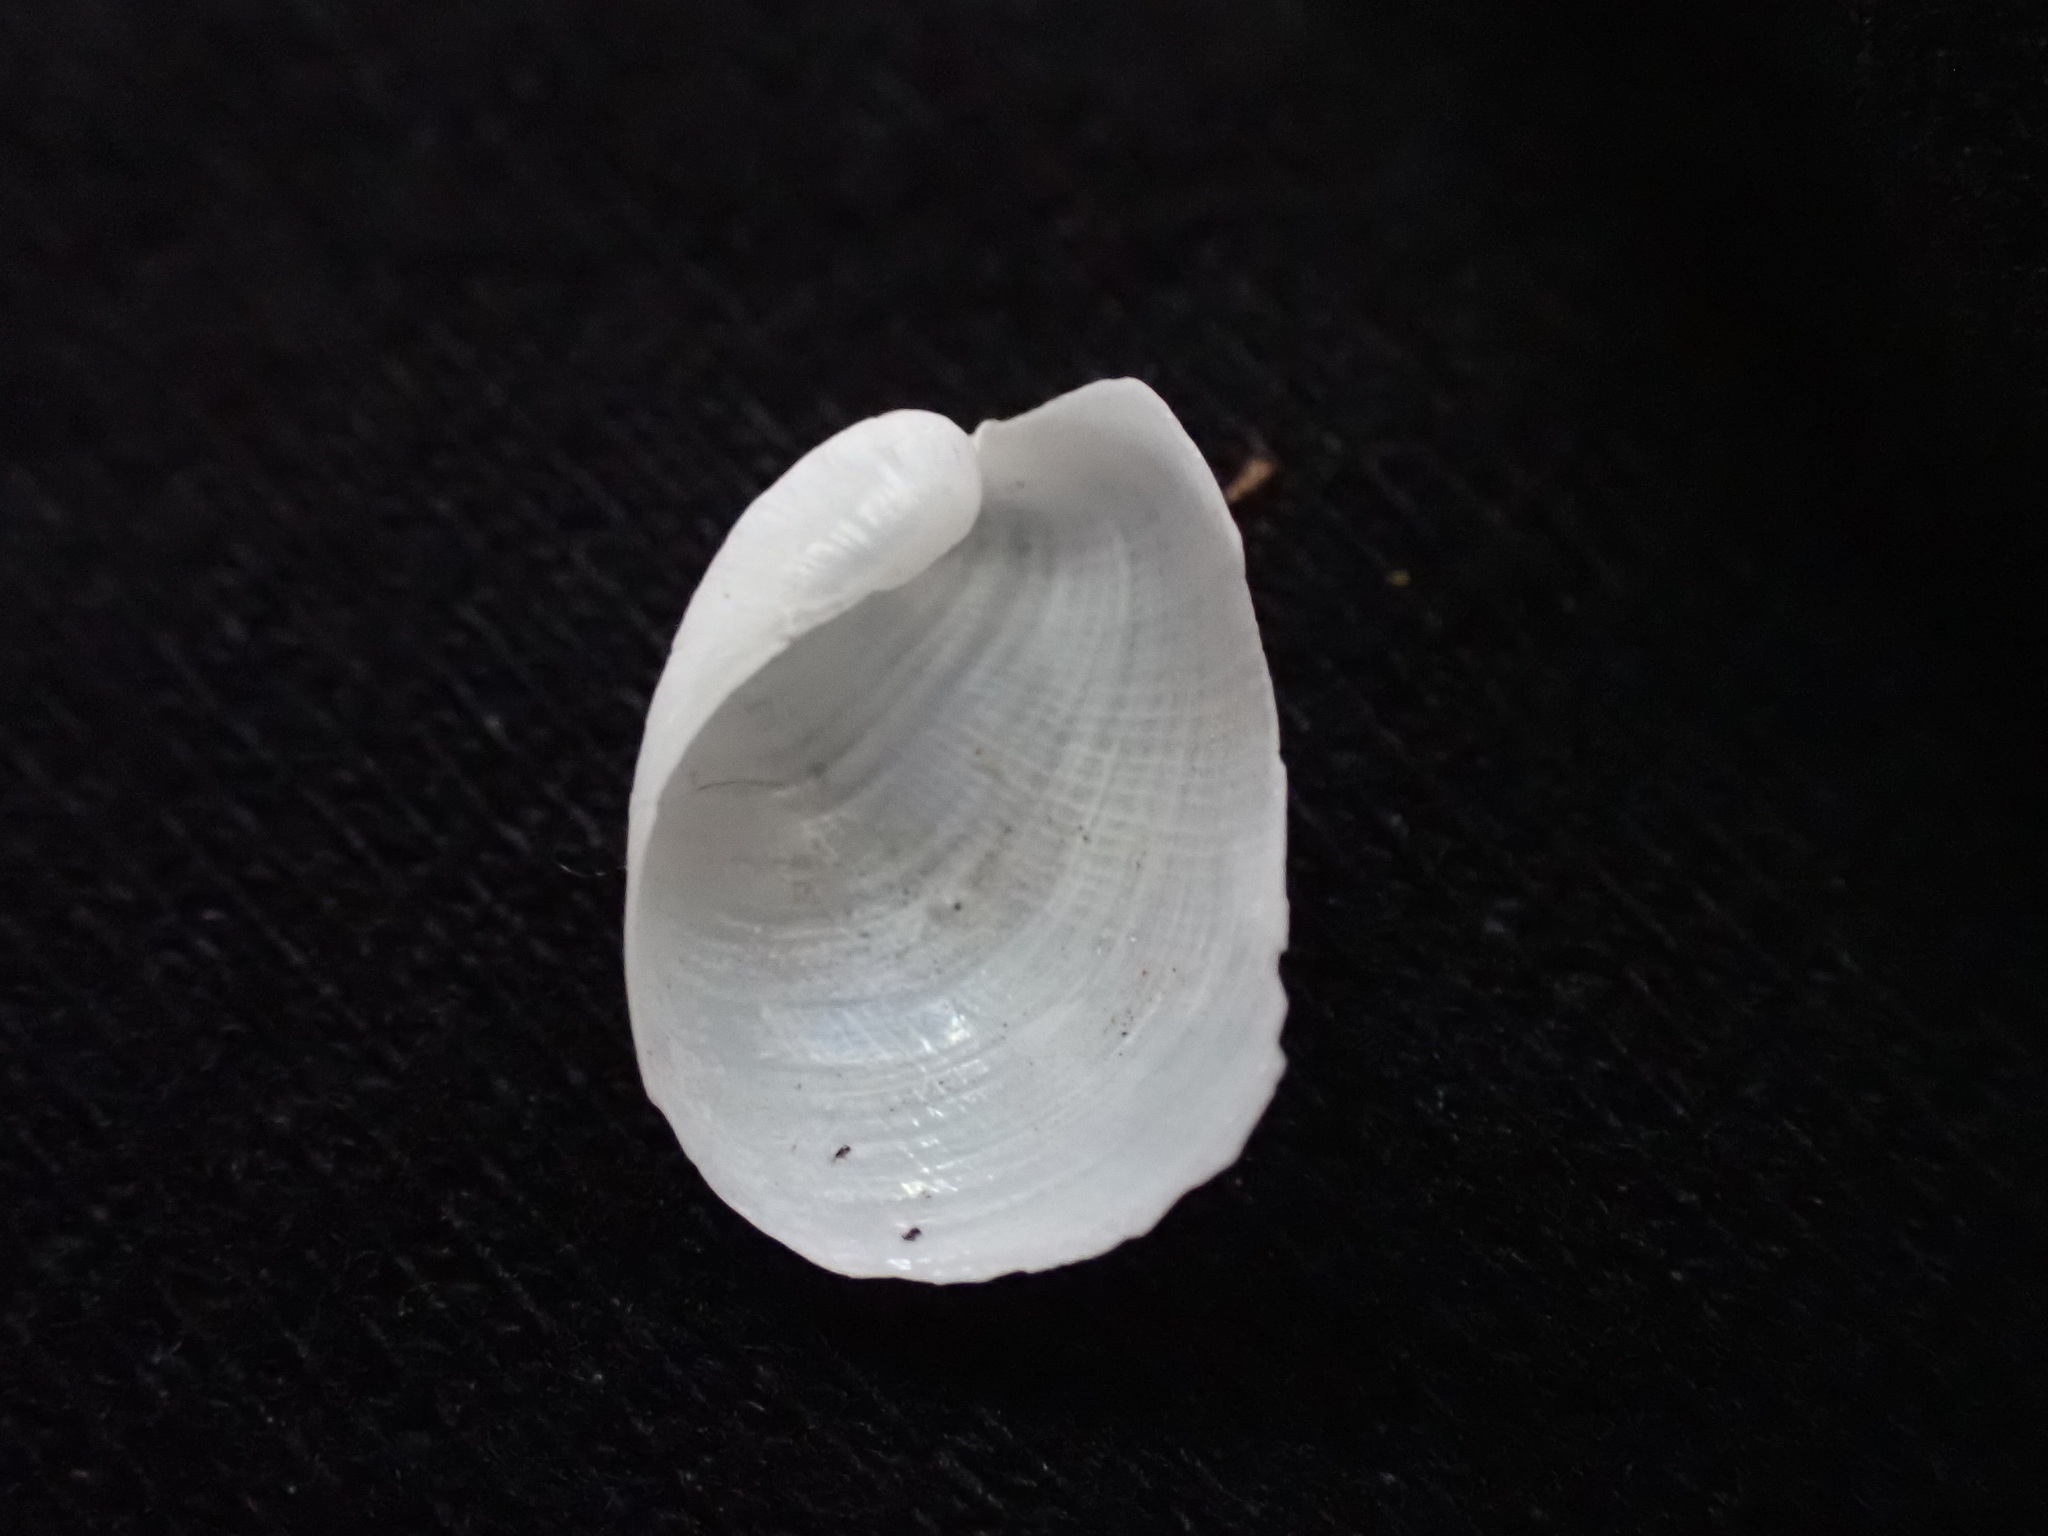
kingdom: Animalia
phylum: Mollusca
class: Gastropoda
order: Cephalaspidea
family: Philinidae
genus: Philine
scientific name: Philine auriformis
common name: Sea snail
